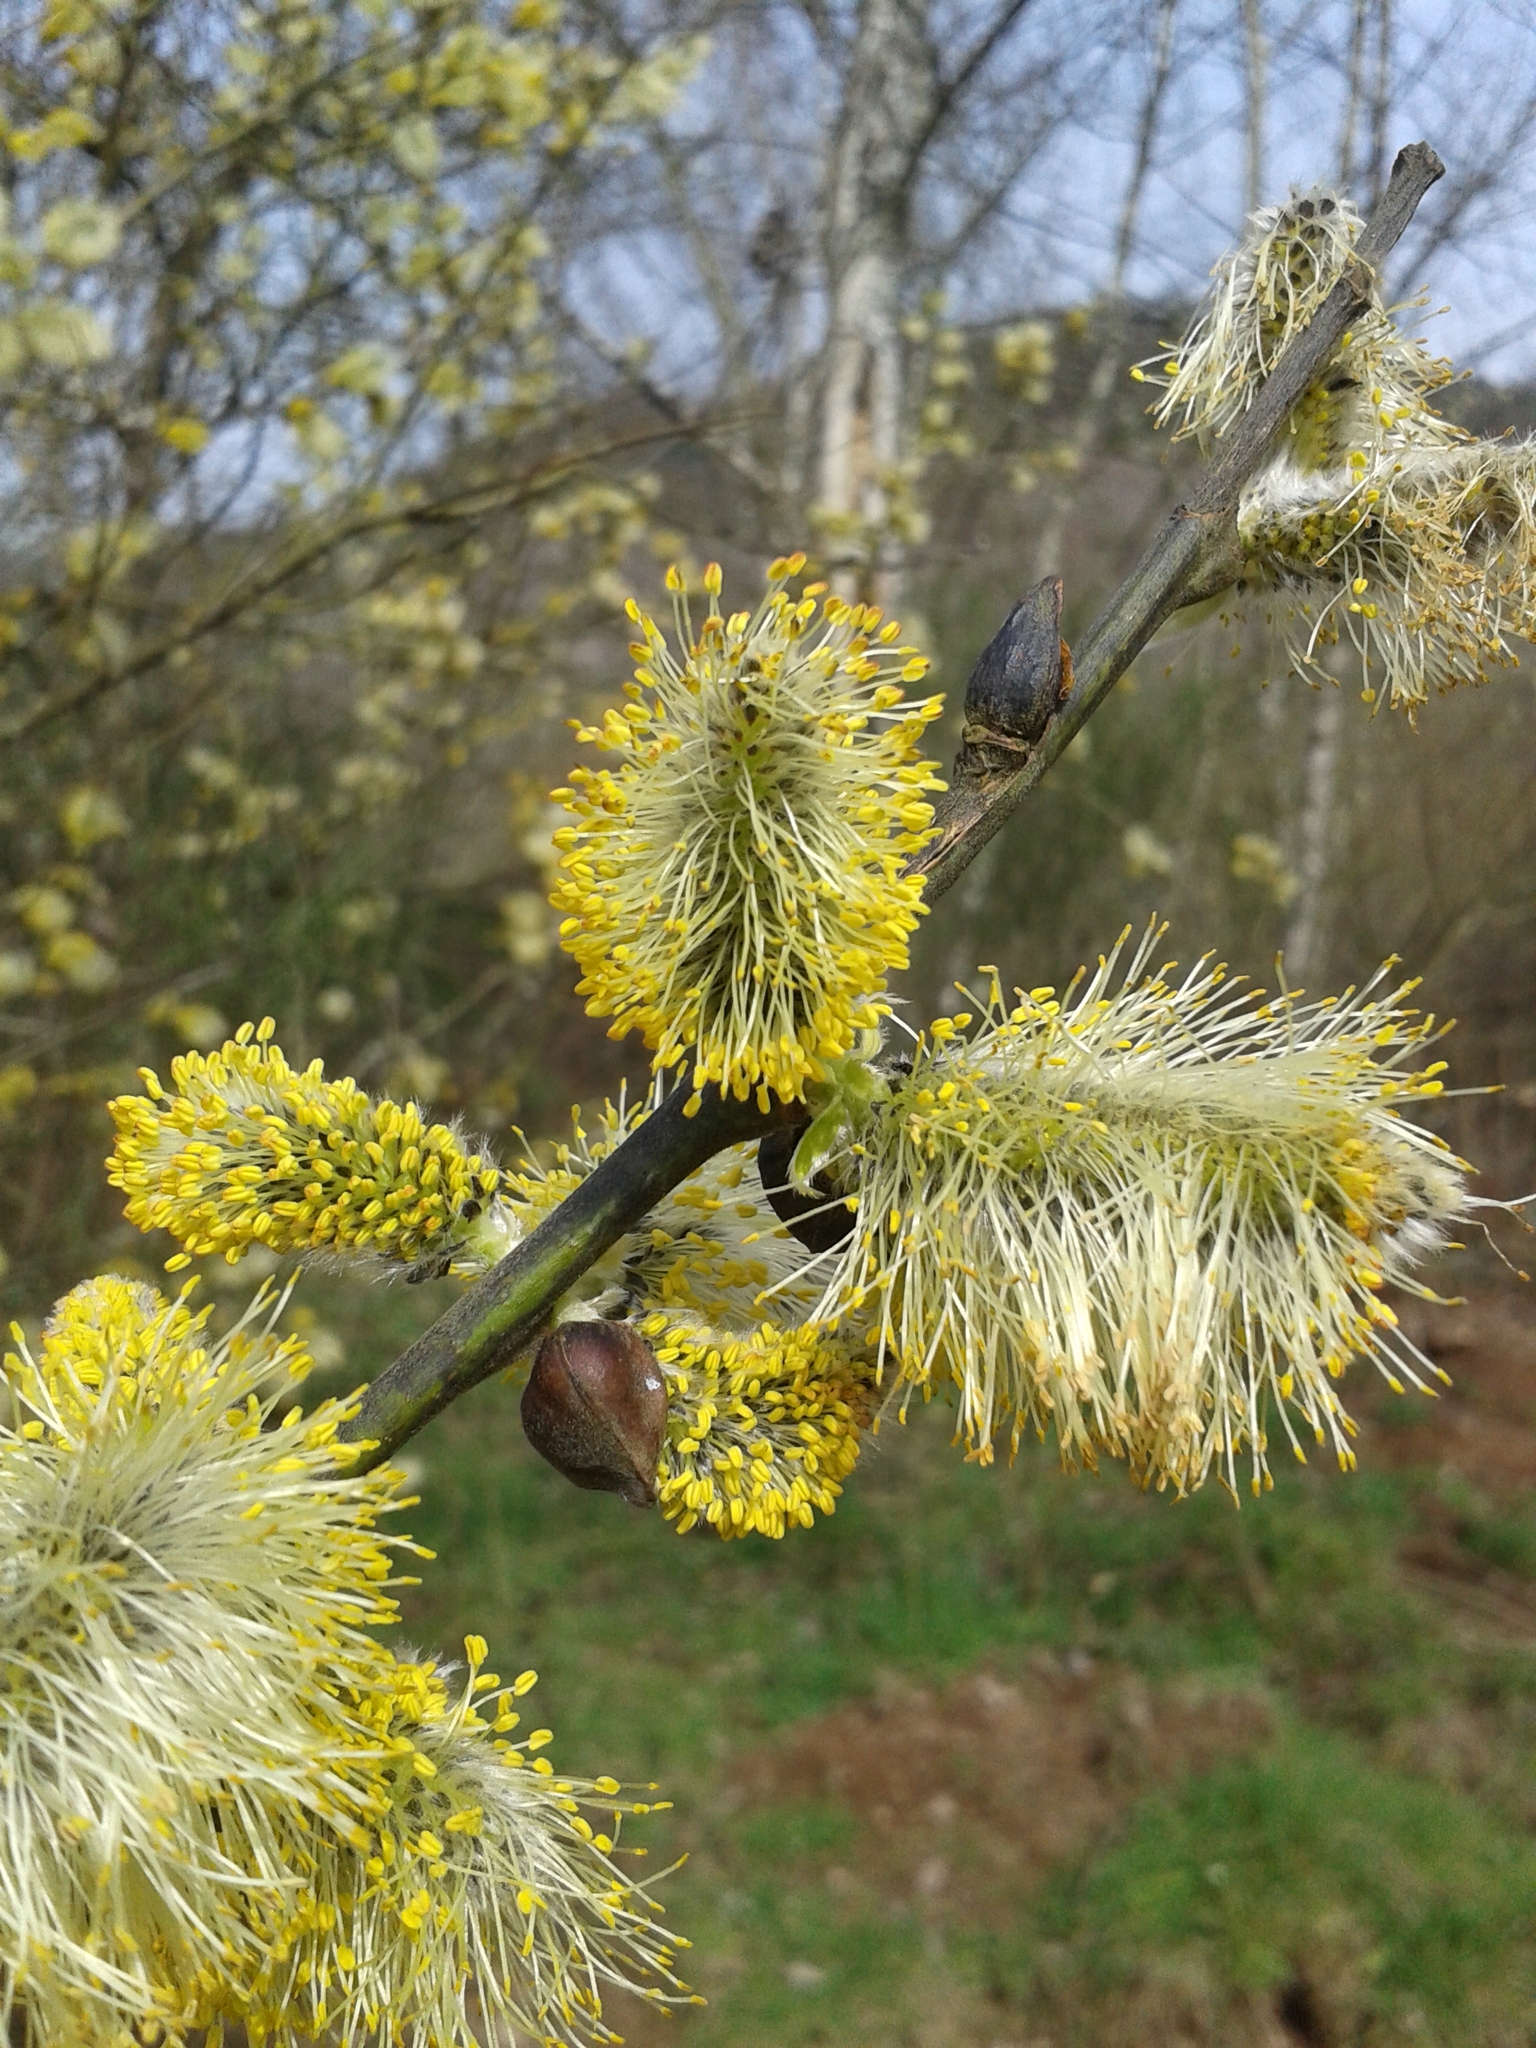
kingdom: Plantae
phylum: Tracheophyta
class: Magnoliopsida
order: Malpighiales
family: Salicaceae
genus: Salix
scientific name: Salix caprea
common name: Goat willow
